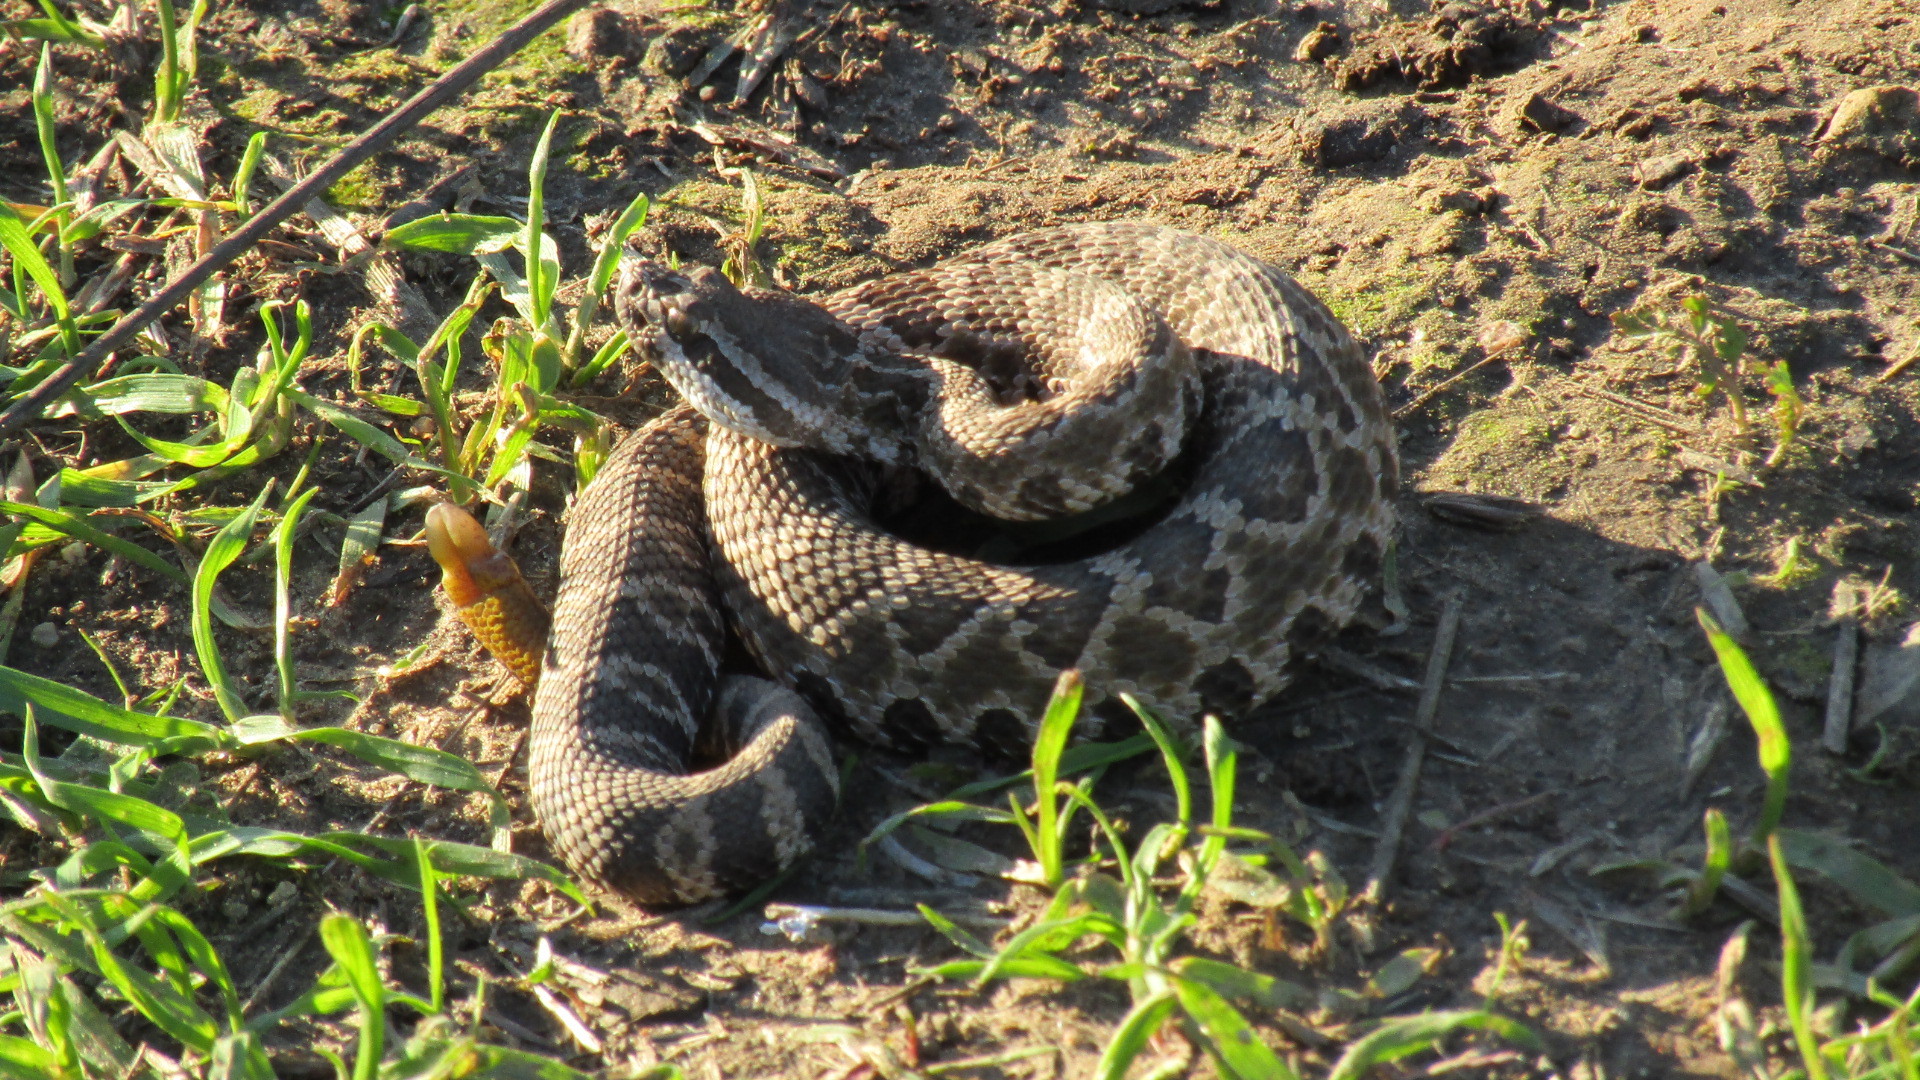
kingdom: Animalia
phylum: Chordata
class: Squamata
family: Viperidae
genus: Crotalus
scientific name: Crotalus oreganus
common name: Abyssus
